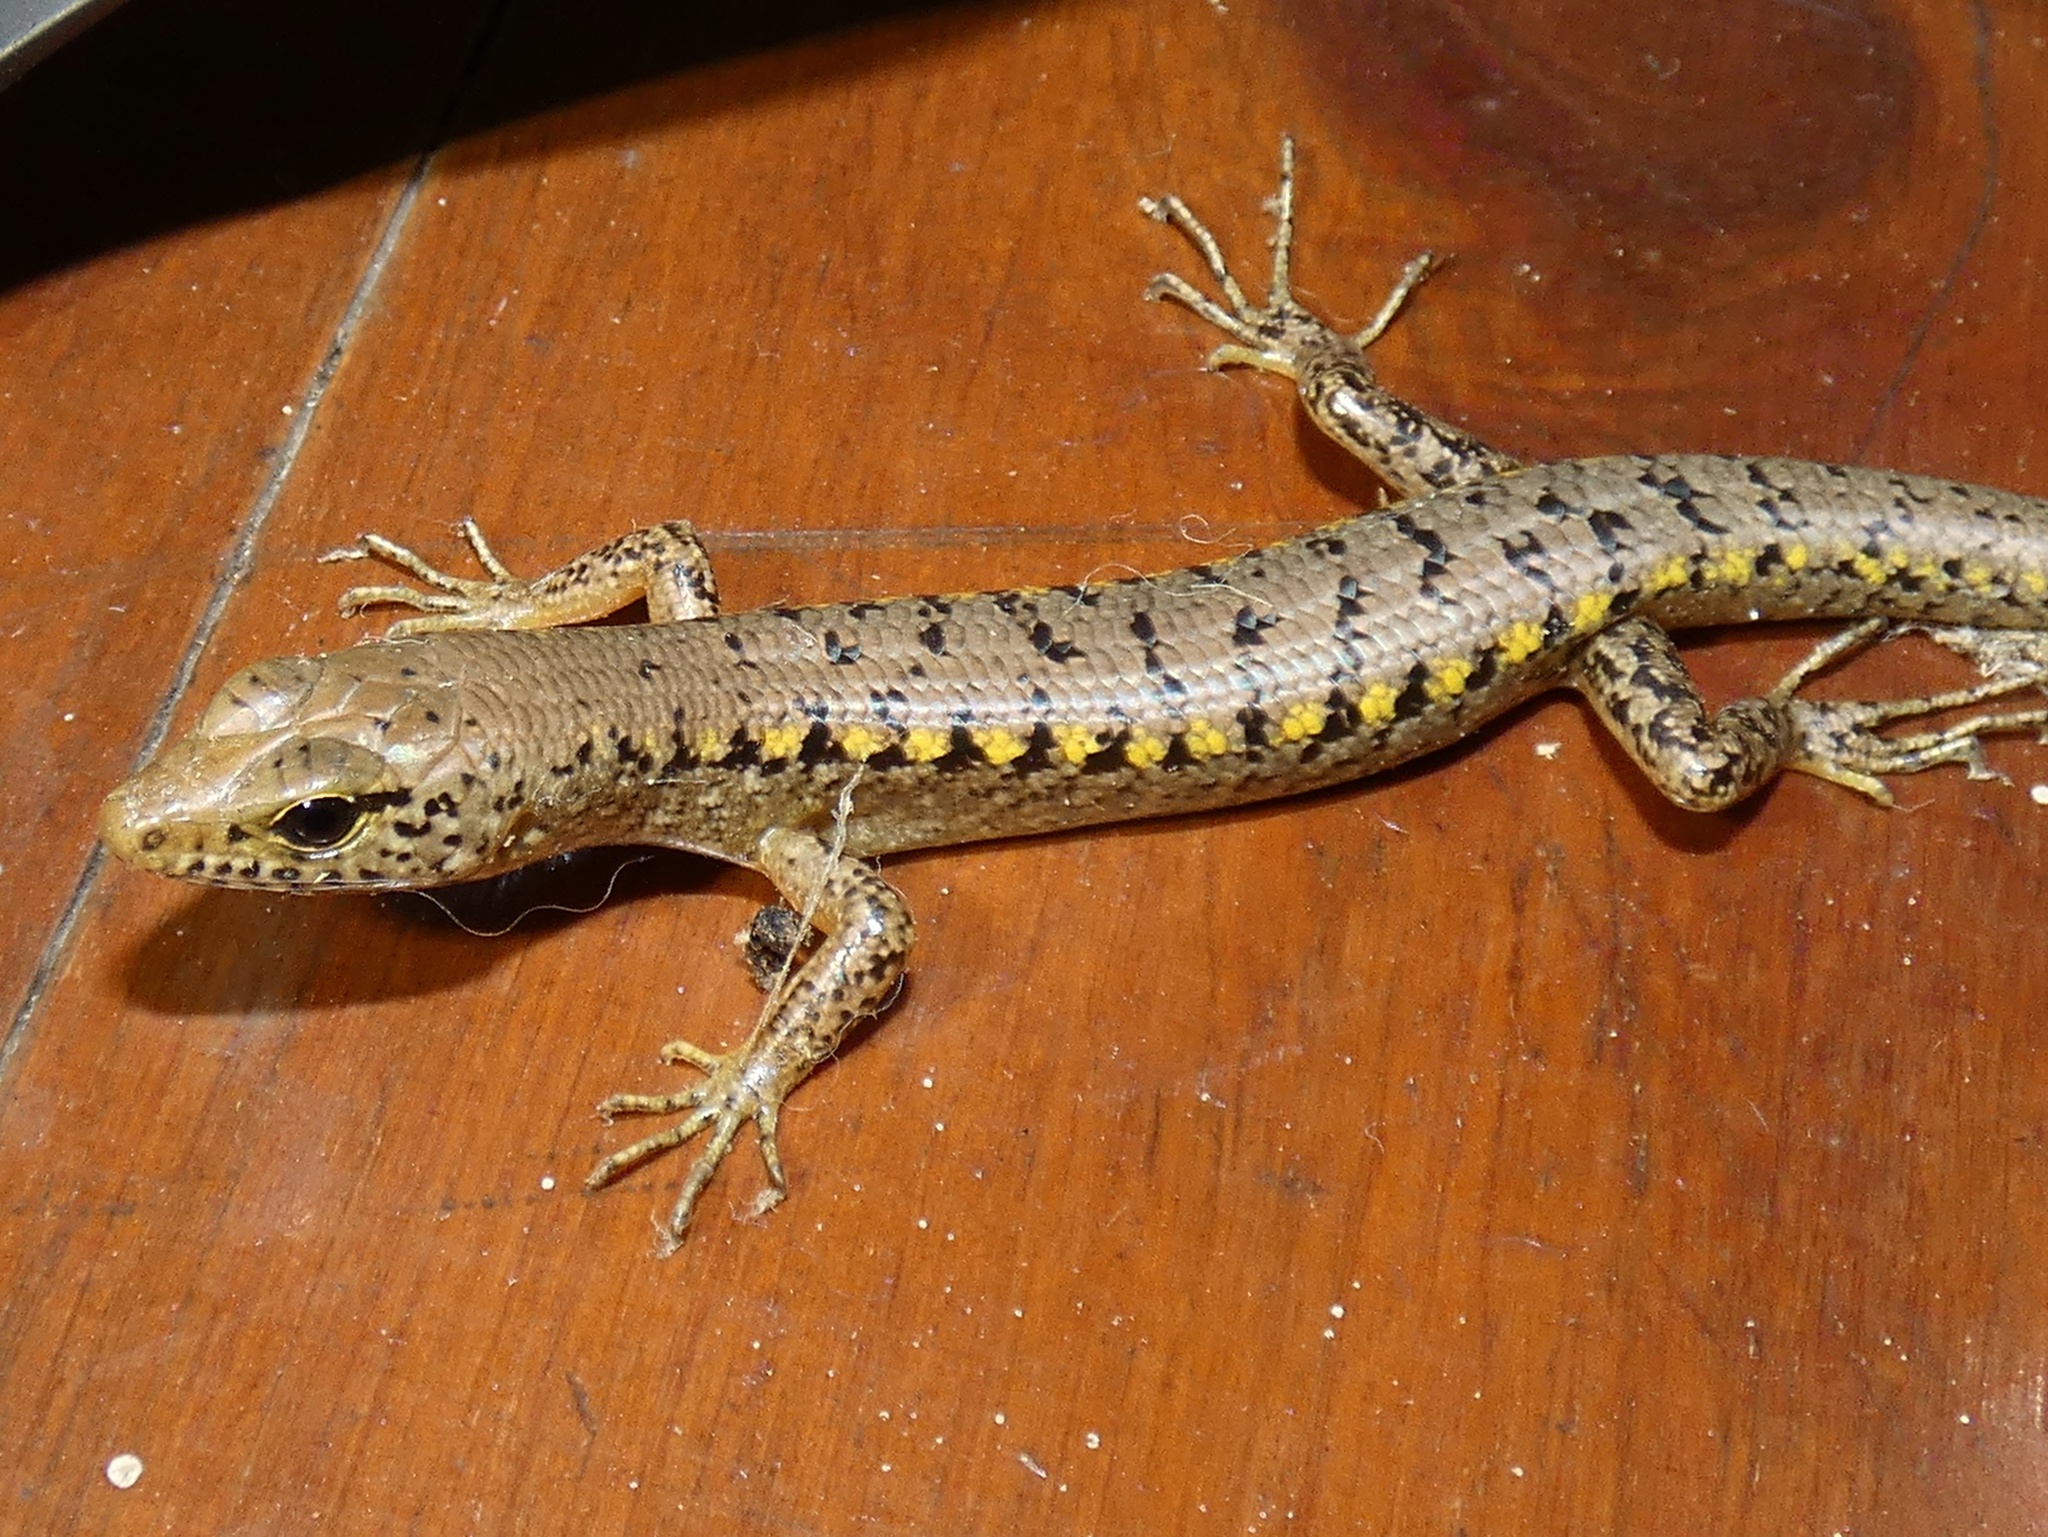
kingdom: Animalia
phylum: Chordata
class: Squamata
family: Scincidae
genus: Concinnia
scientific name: Concinnia tigrina
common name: Rainforest water-skink
